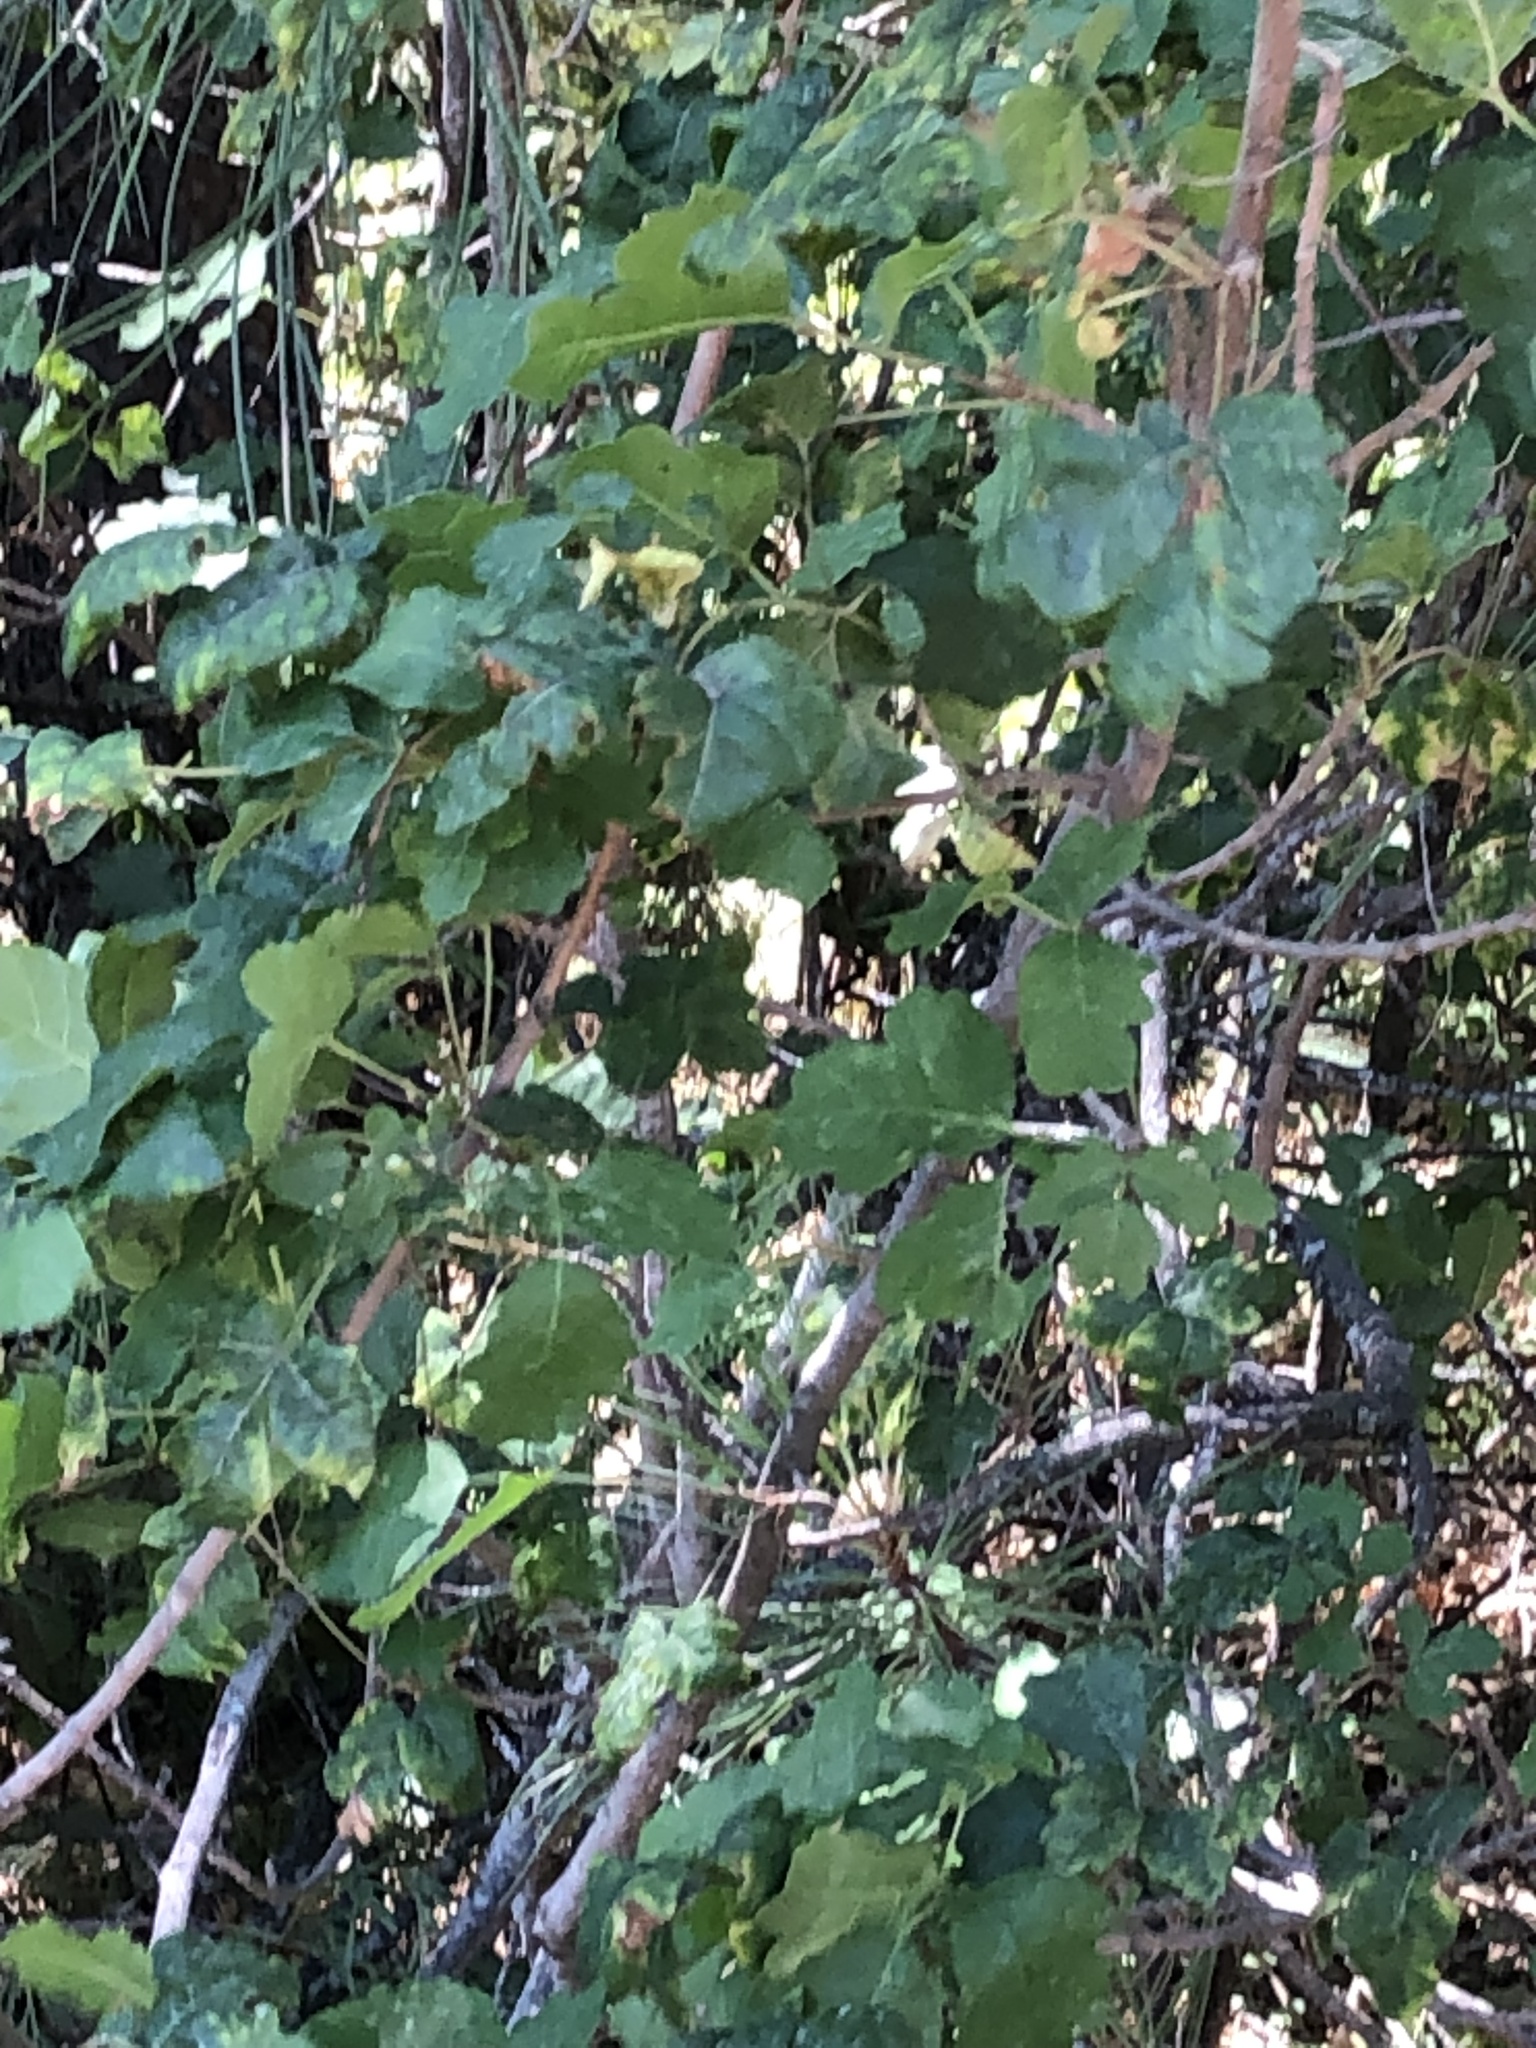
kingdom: Plantae
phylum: Tracheophyta
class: Magnoliopsida
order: Sapindales
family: Anacardiaceae
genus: Toxicodendron
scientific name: Toxicodendron diversilobum
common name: Pacific poison-oak
